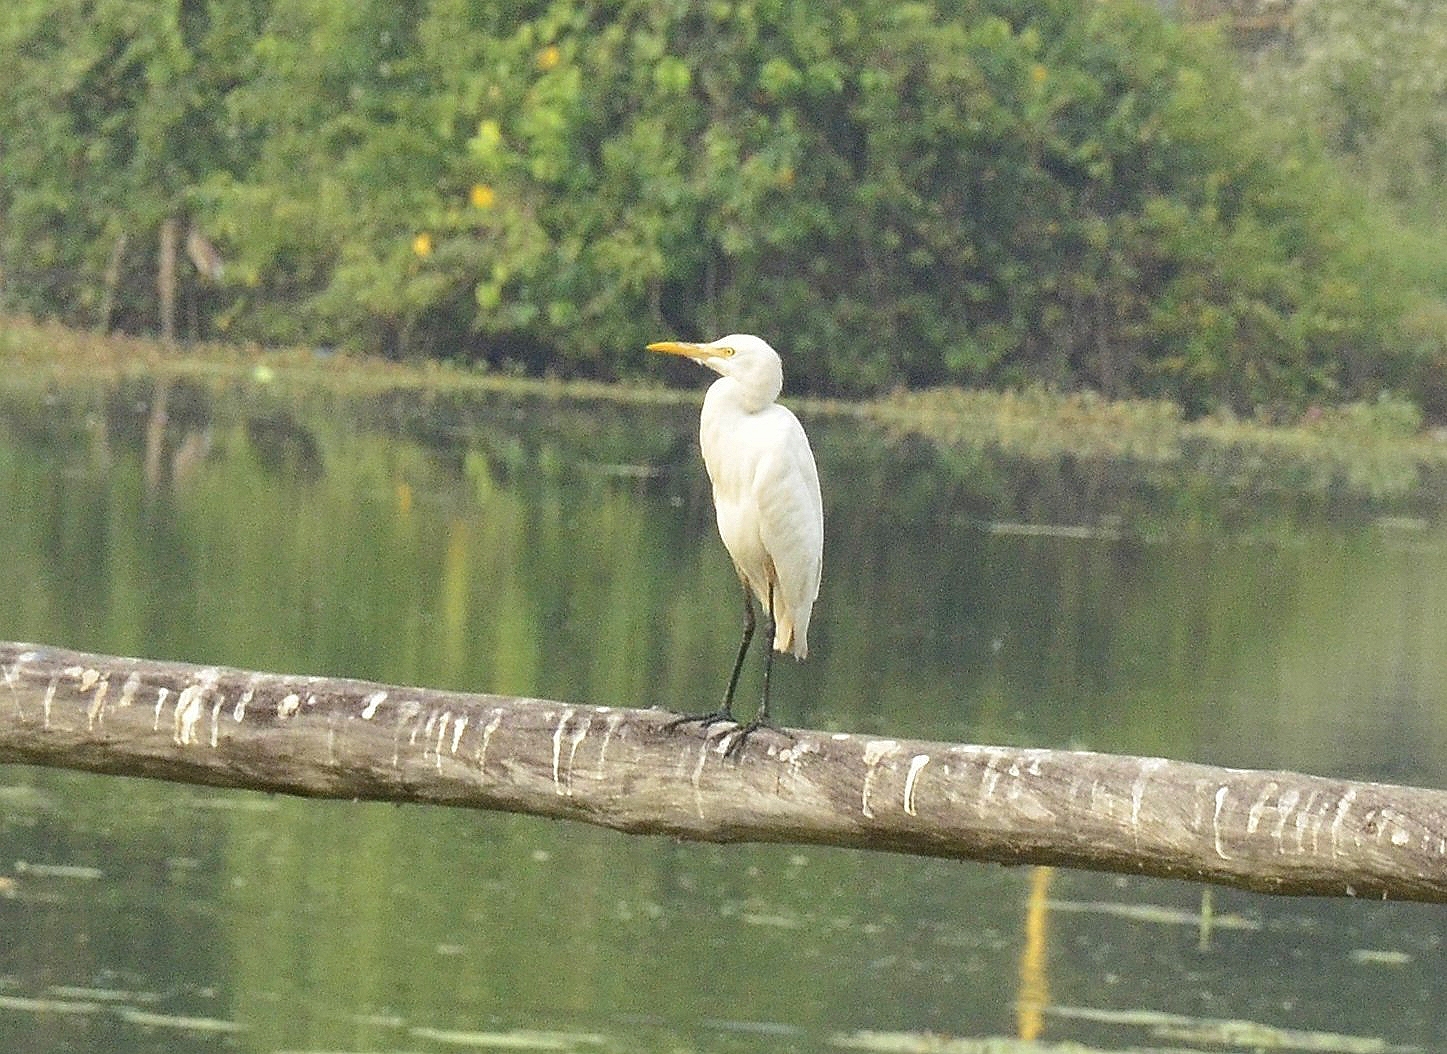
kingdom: Animalia
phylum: Chordata
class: Aves
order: Pelecaniformes
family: Ardeidae
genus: Bubulcus
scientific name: Bubulcus coromandus
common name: Eastern cattle egret
